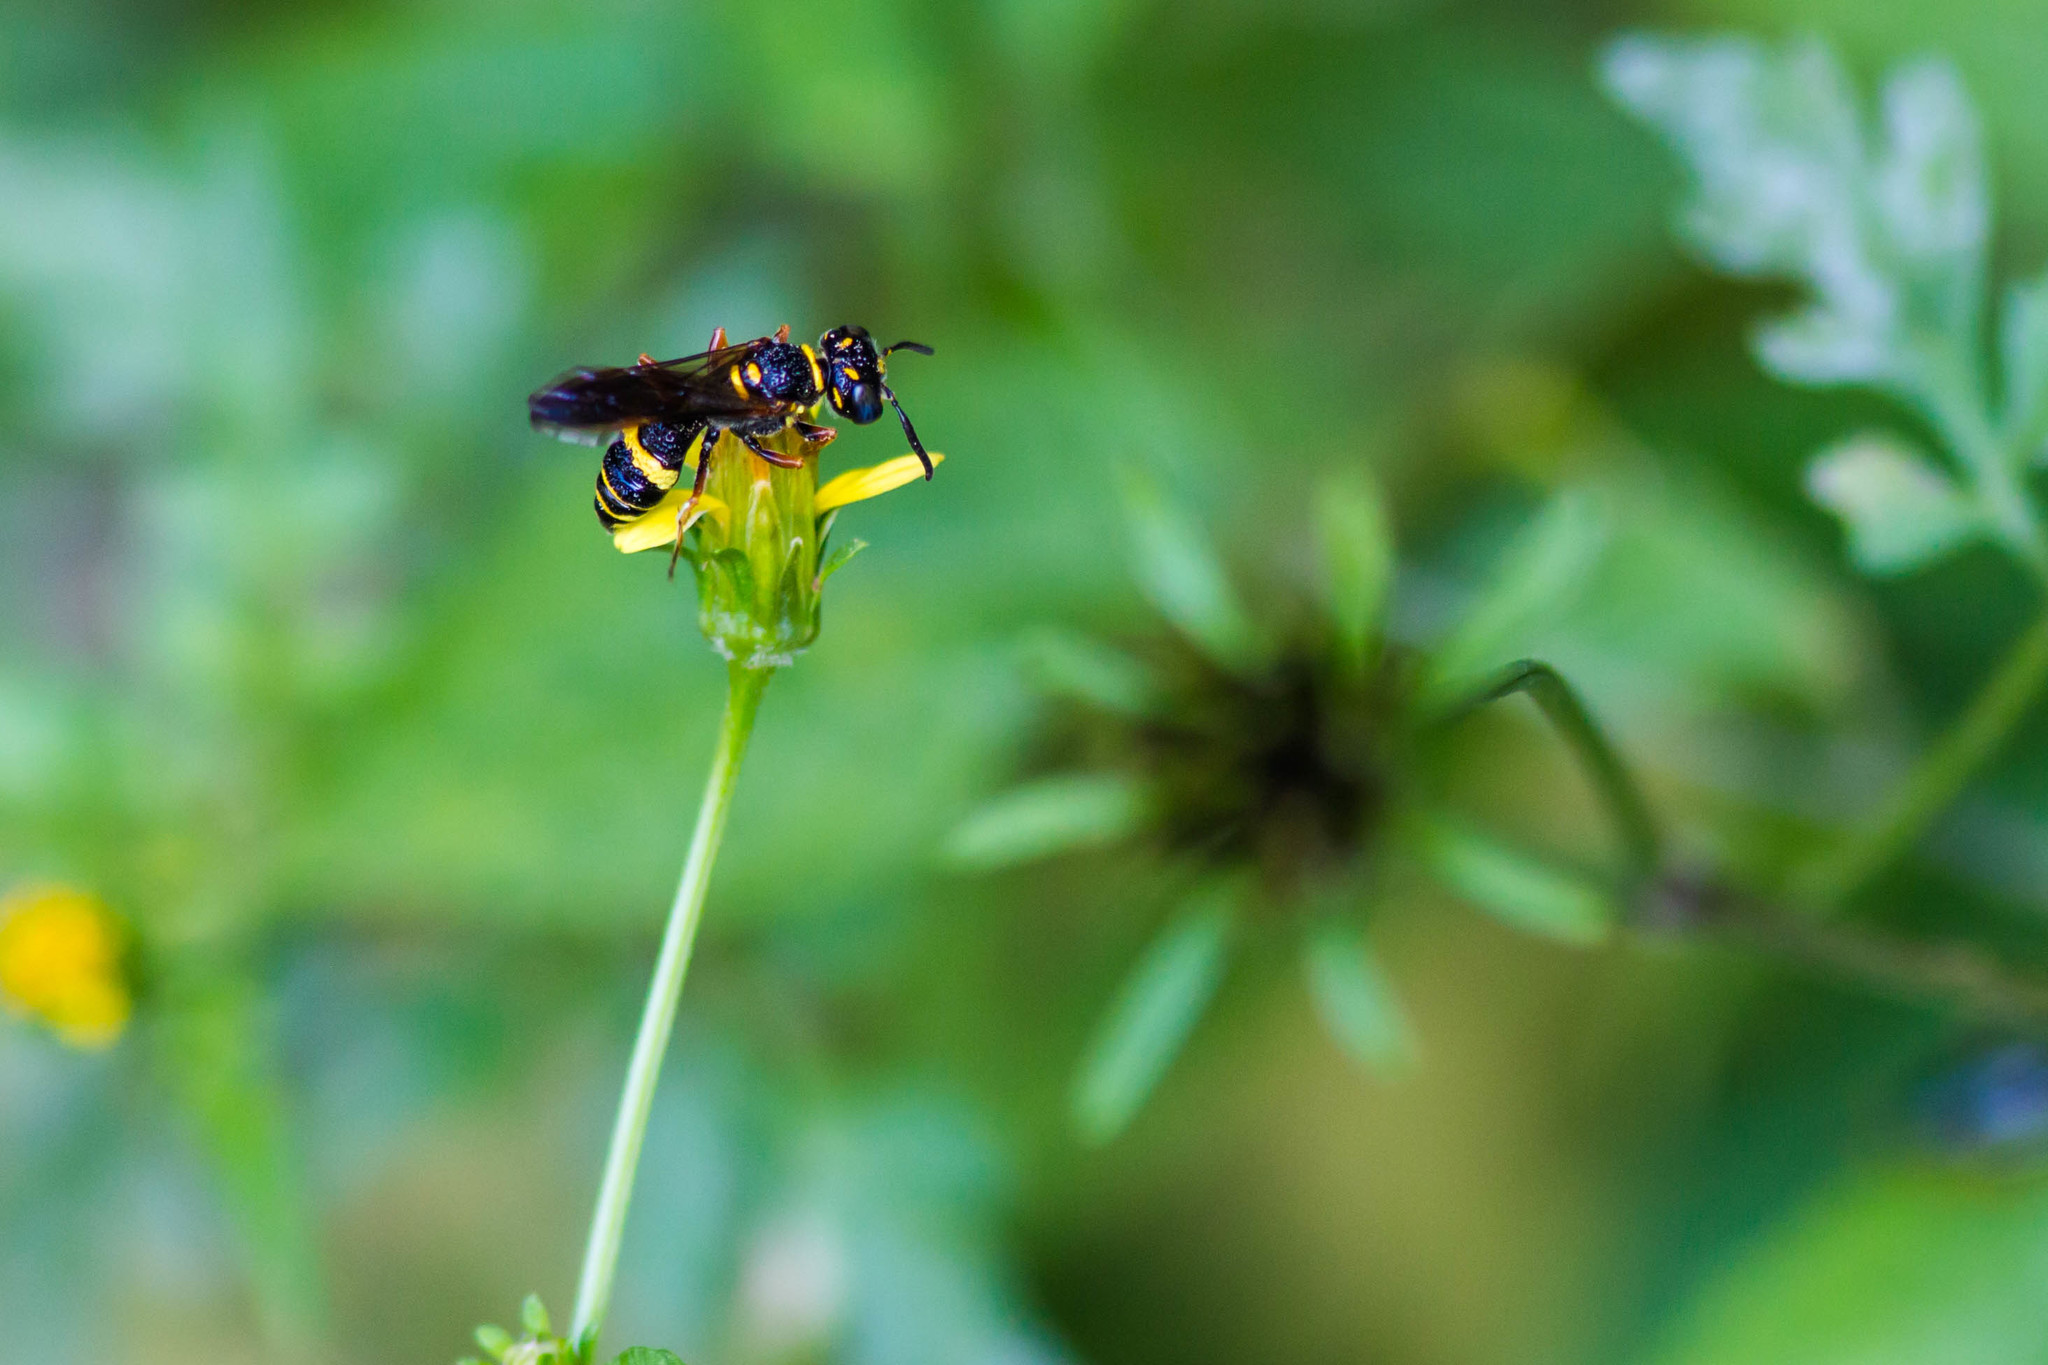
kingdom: Animalia
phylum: Arthropoda
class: Insecta
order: Hymenoptera
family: Crabronidae
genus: Philanthus
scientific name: Philanthus gibbosus
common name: Humped beewolf
